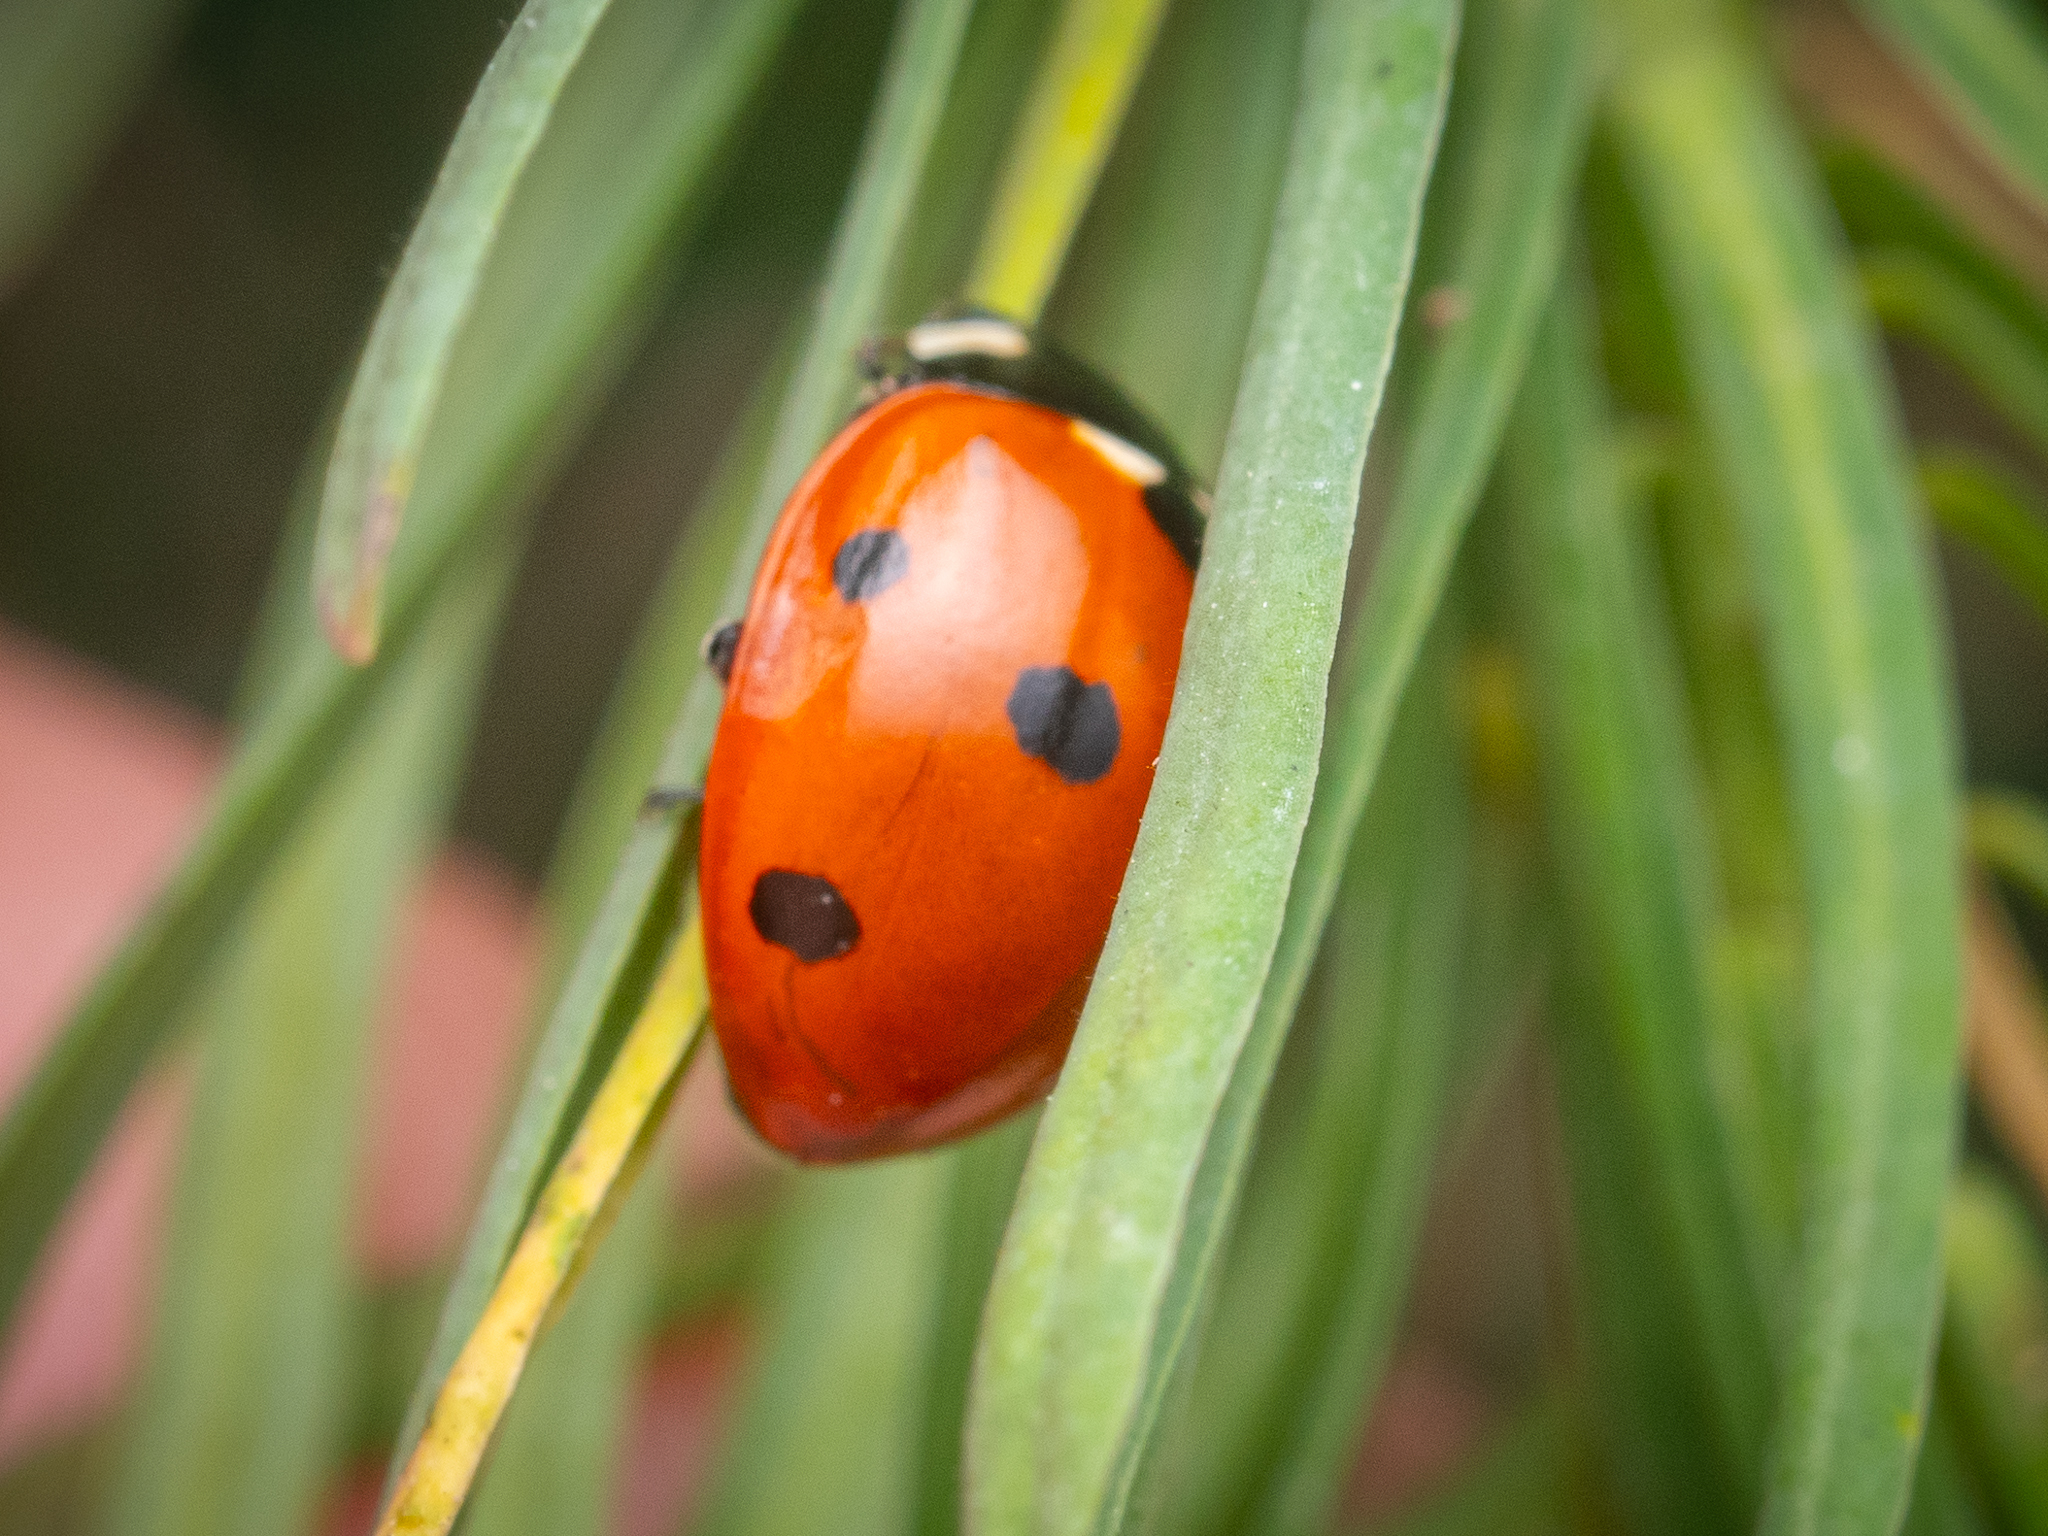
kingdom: Animalia
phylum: Arthropoda
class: Insecta
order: Coleoptera
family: Coccinellidae
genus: Coccinella
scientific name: Coccinella septempunctata
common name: Sevenspotted lady beetle
